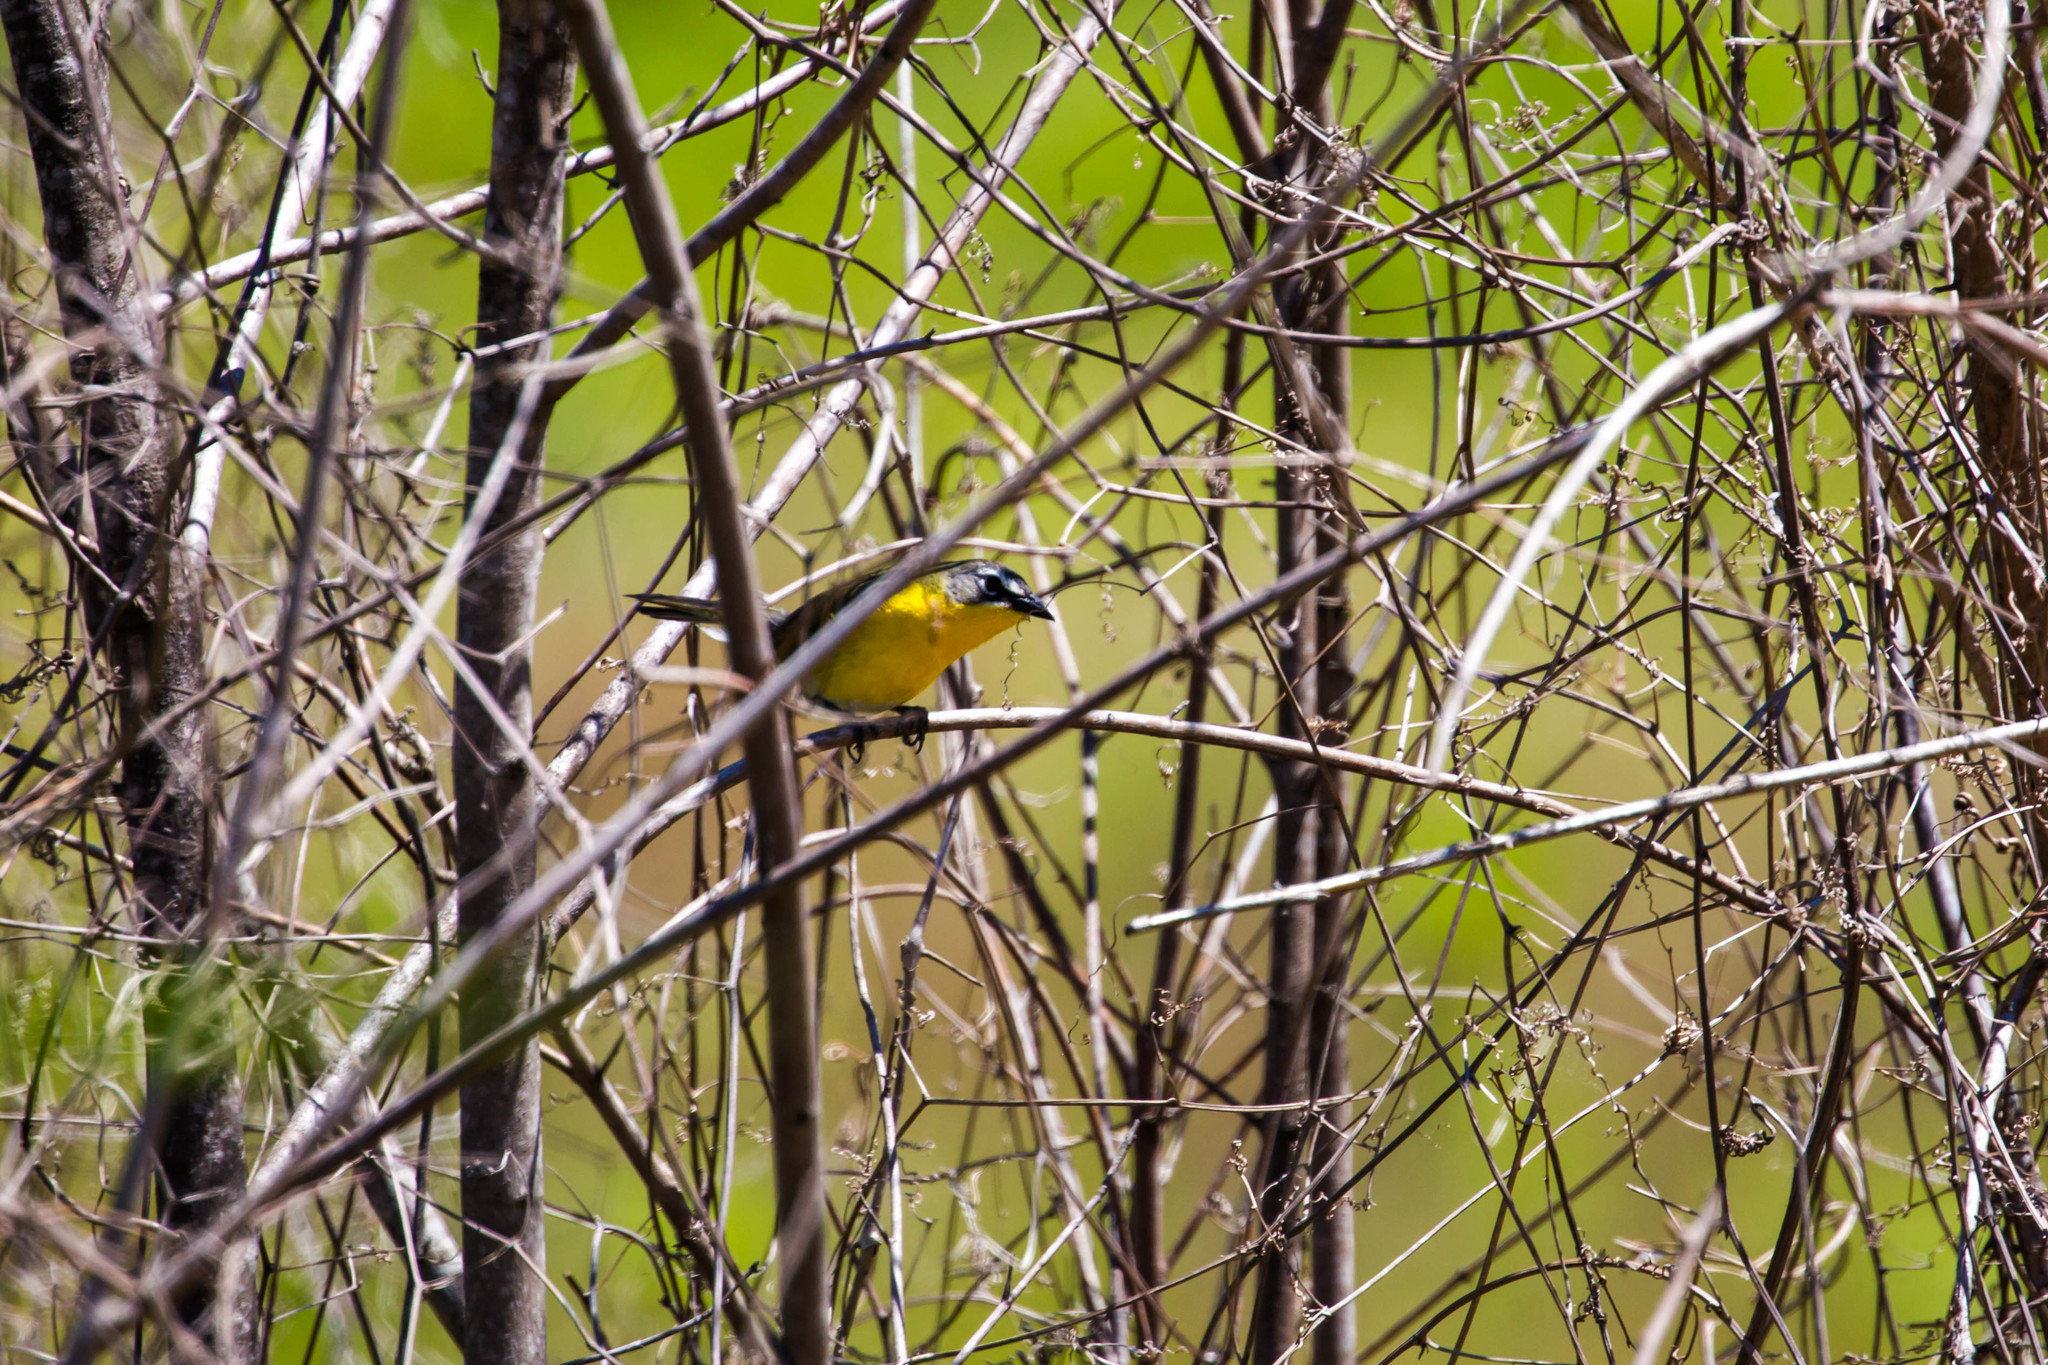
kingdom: Animalia
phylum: Chordata
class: Aves
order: Passeriformes
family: Parulidae
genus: Icteria
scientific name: Icteria virens
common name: Yellow-breasted chat
